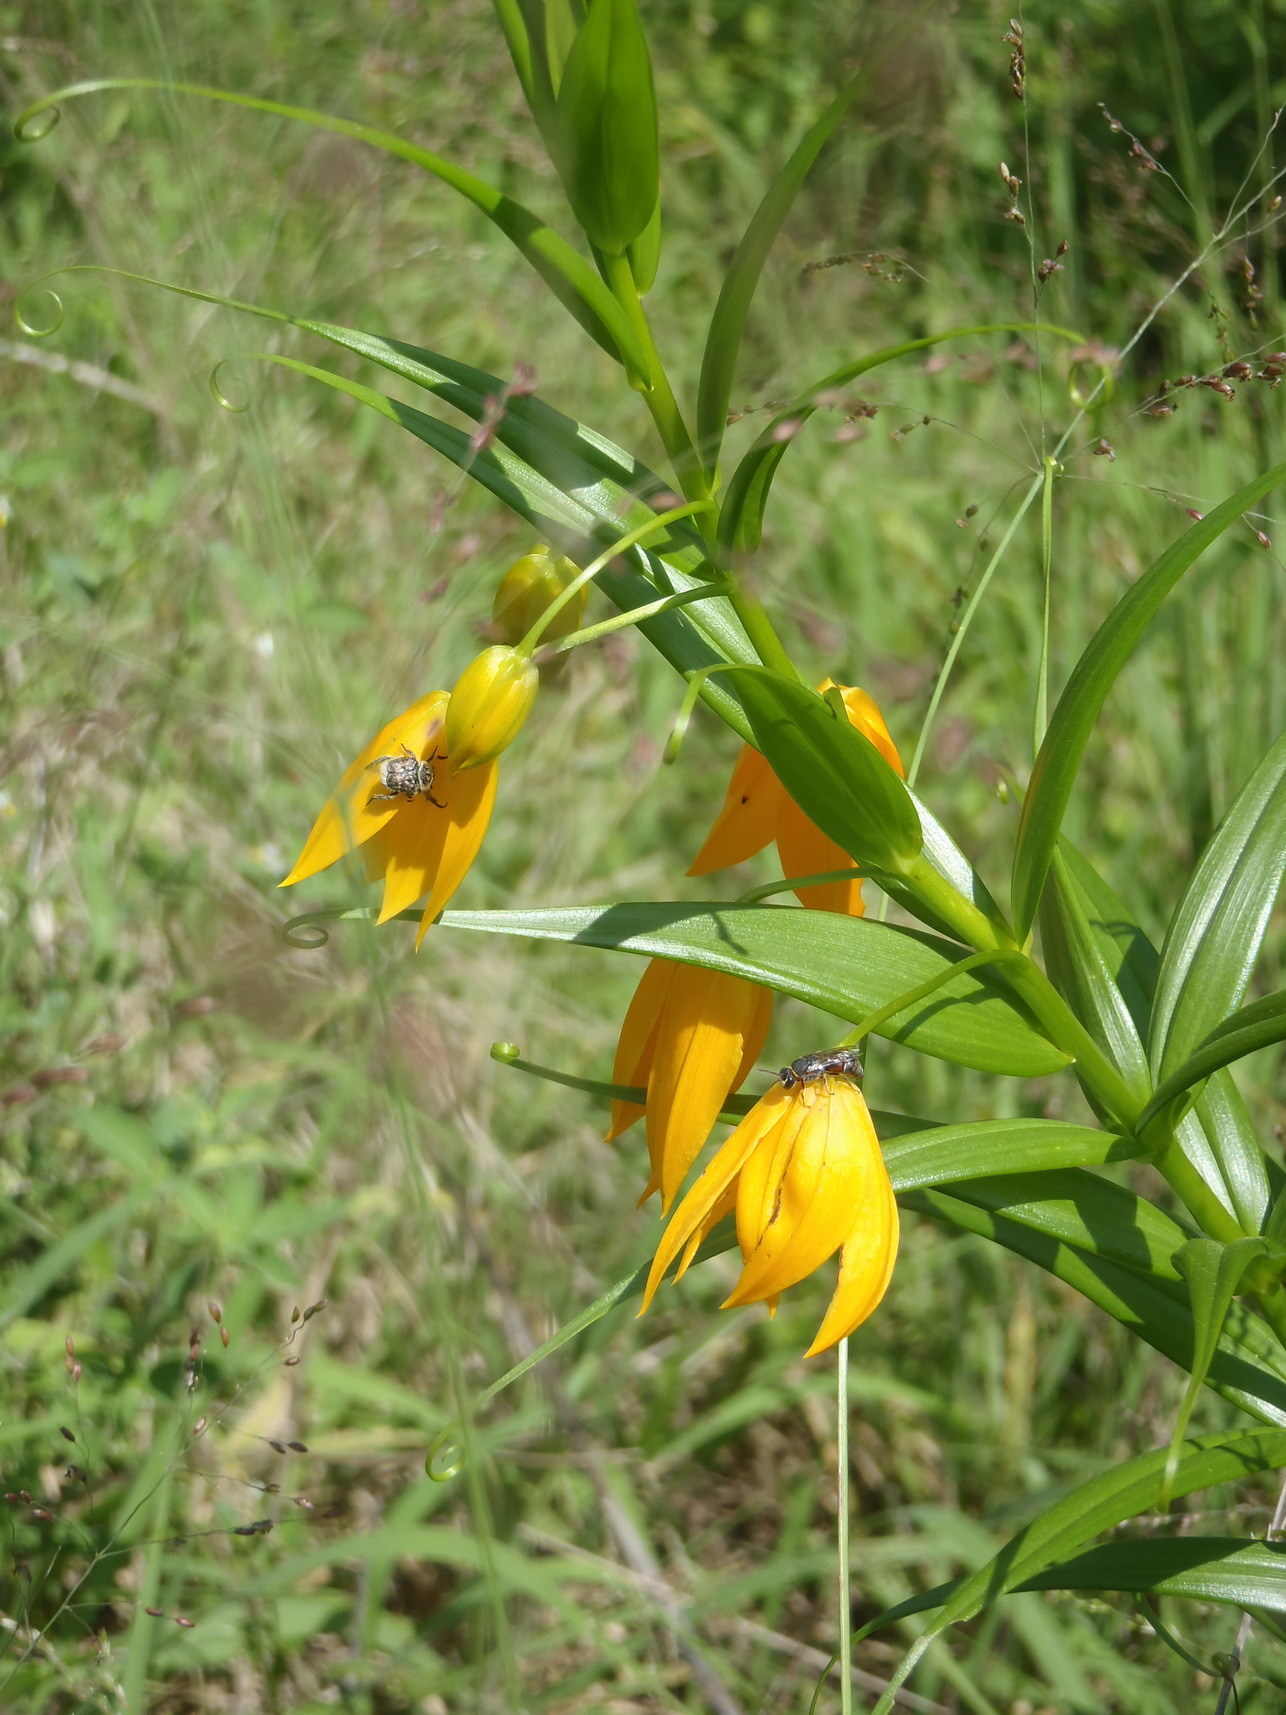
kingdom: Plantae
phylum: Tracheophyta
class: Liliopsida
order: Liliales
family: Colchicaceae
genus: Gloriosa
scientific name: Gloriosa modesta
